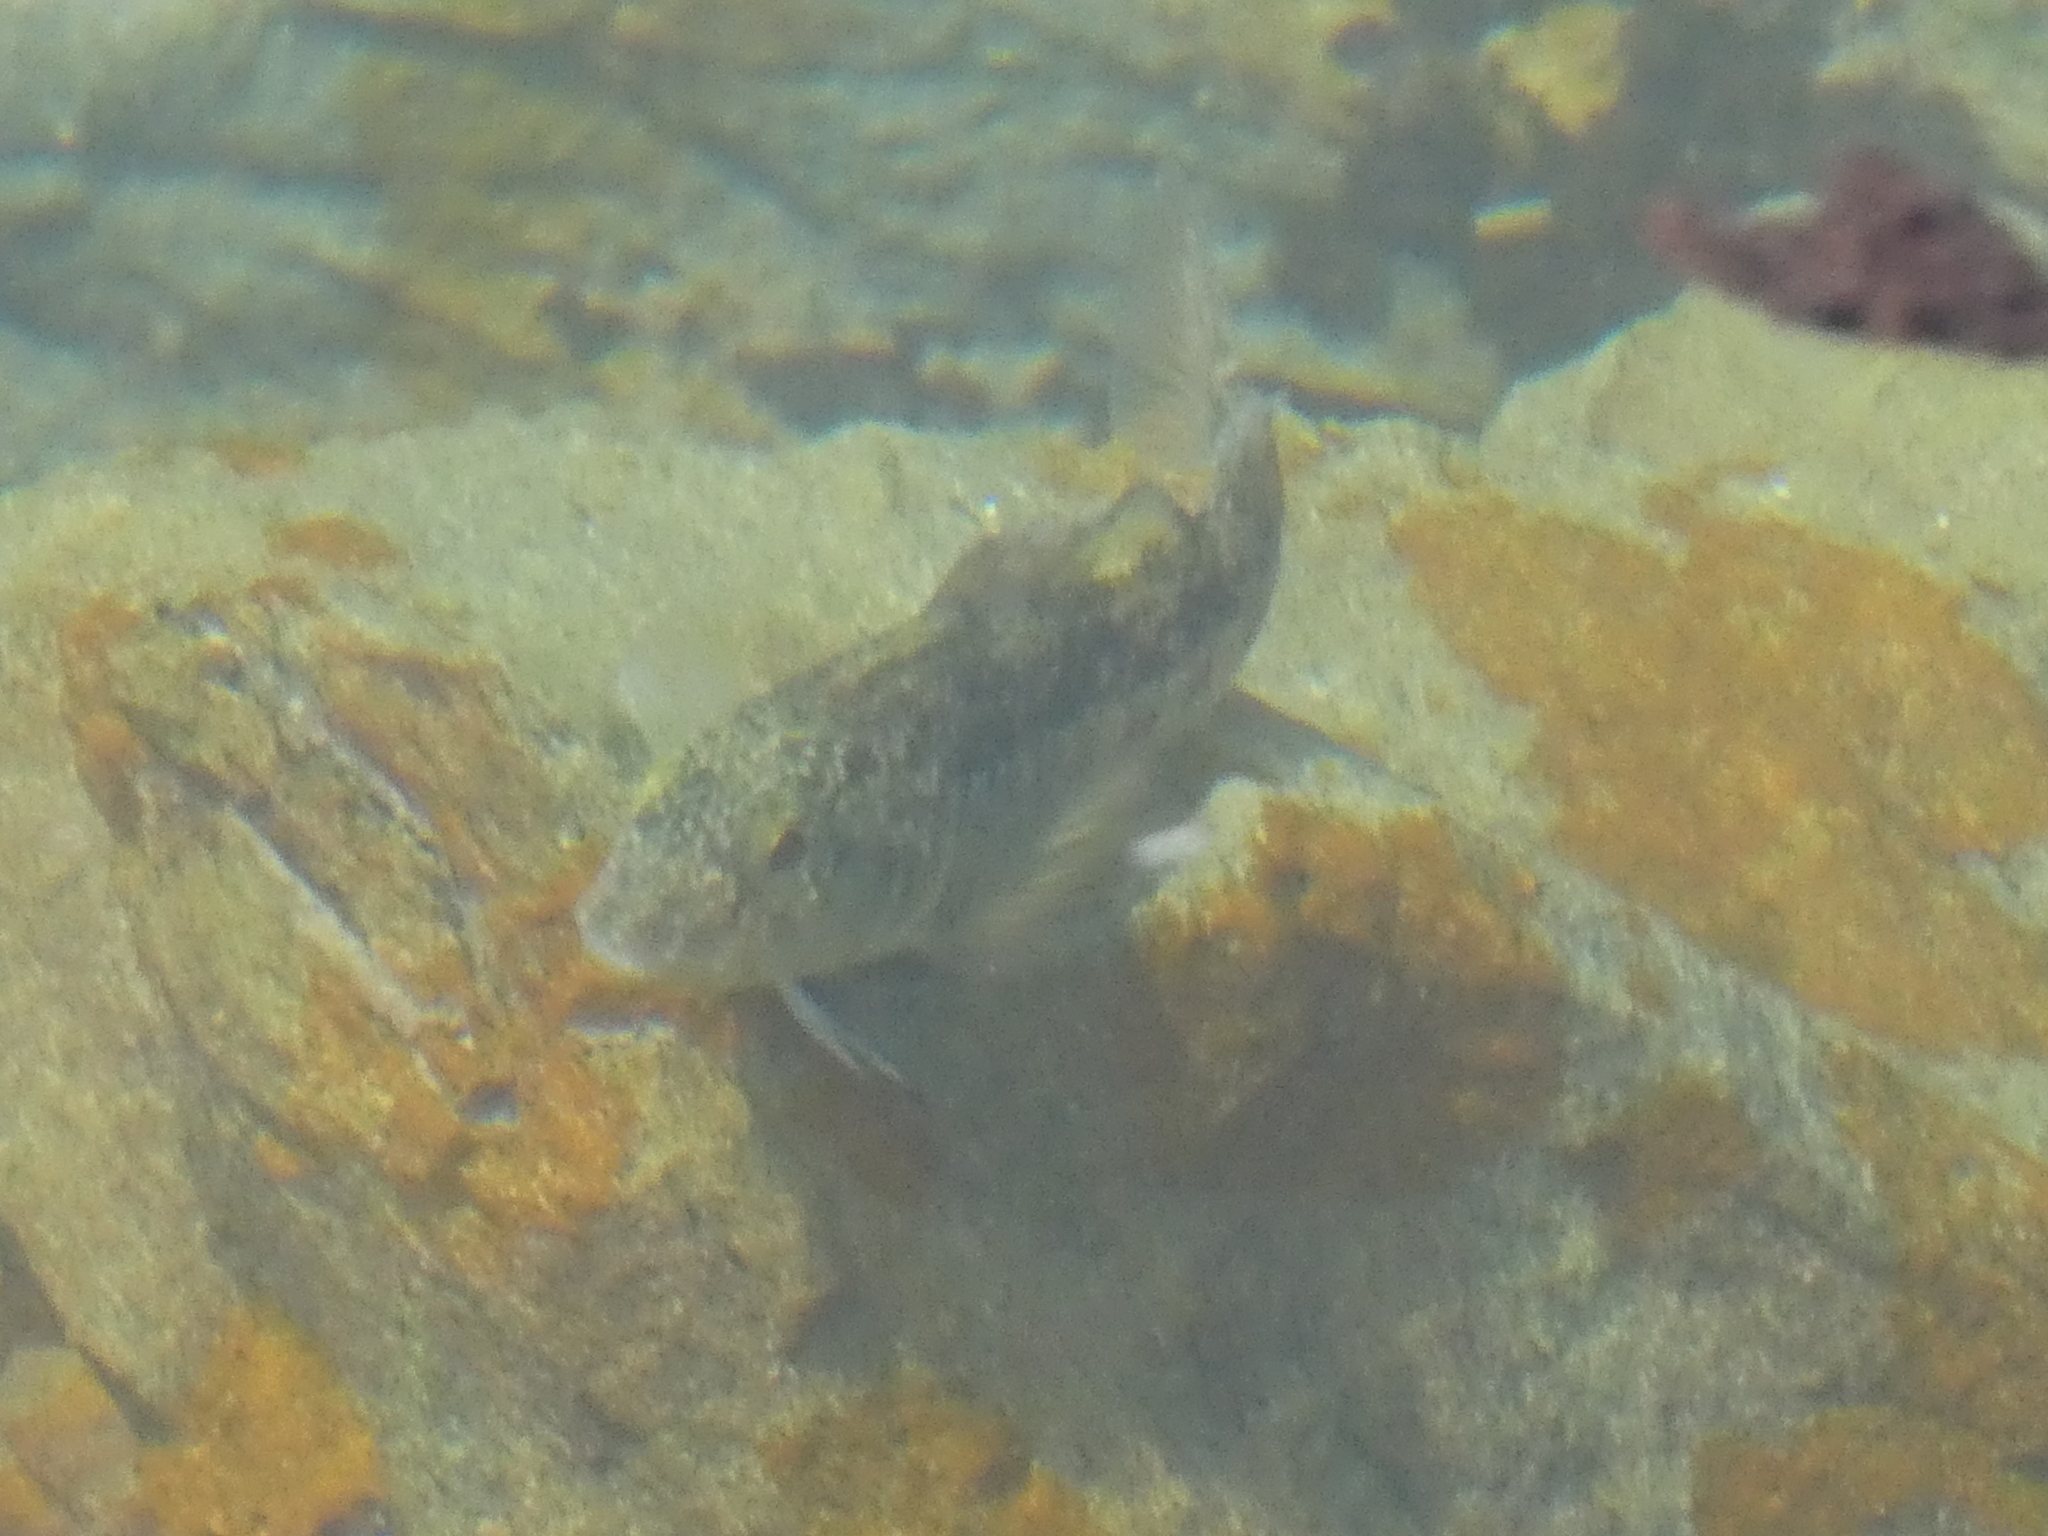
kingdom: Animalia
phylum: Chordata
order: Perciformes
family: Tripterygiidae
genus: Forsterygion
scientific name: Forsterygion nigripenne
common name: Cockabully
